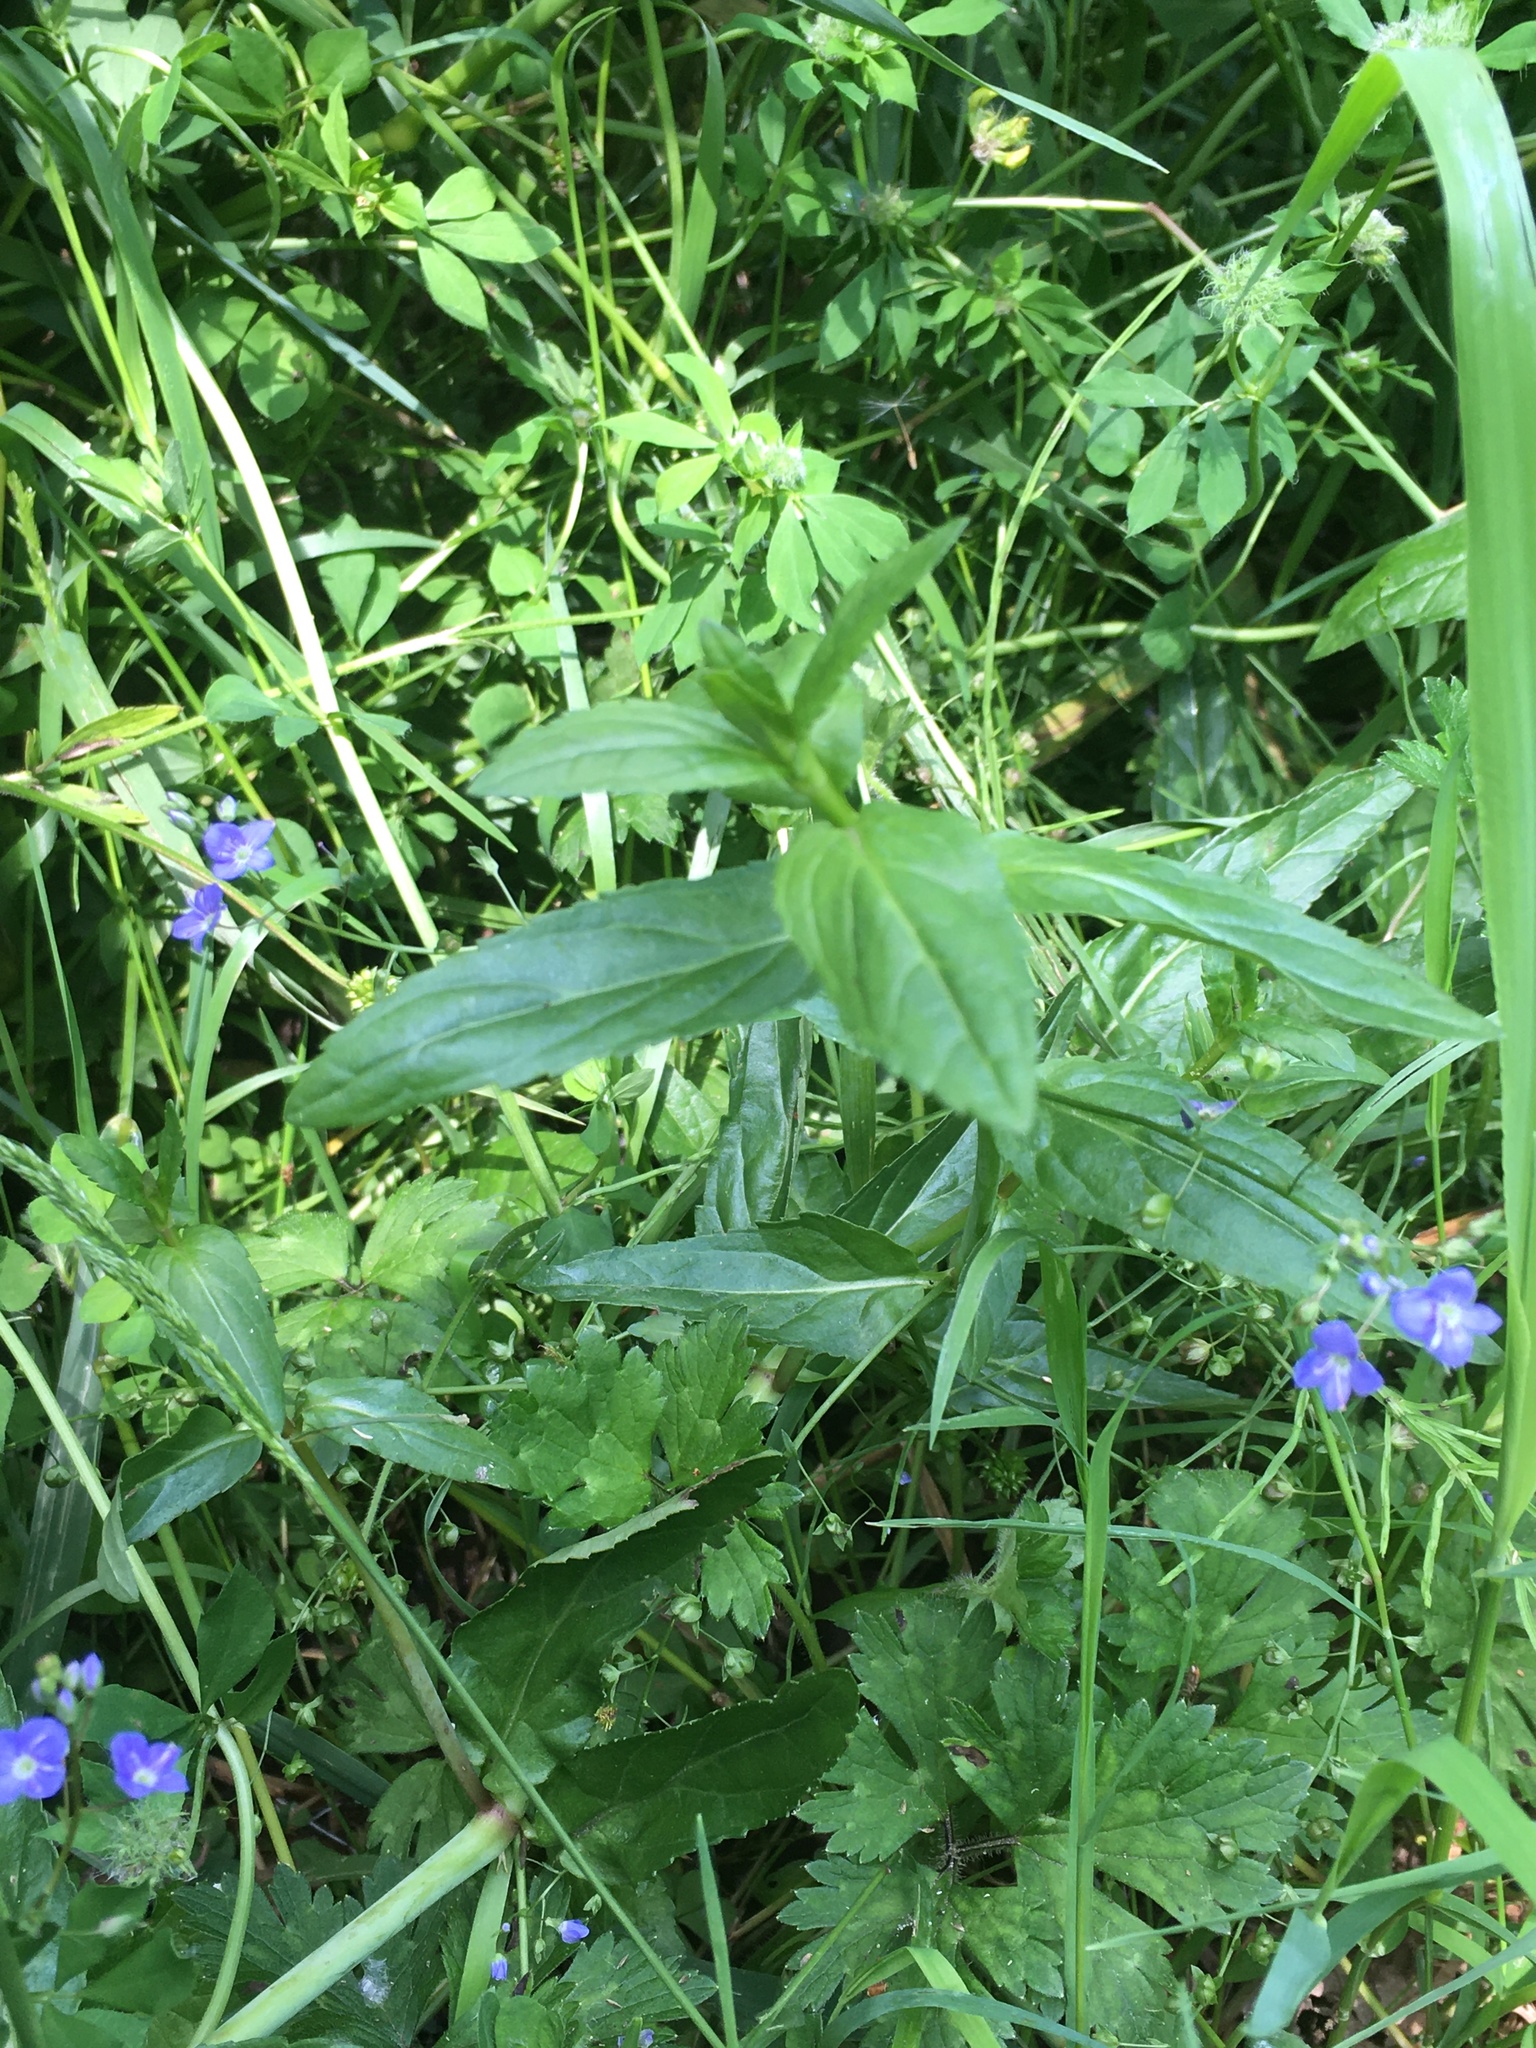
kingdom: Plantae
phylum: Tracheophyta
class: Magnoliopsida
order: Lamiales
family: Plantaginaceae
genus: Veronica
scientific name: Veronica americana
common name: American brooklime
